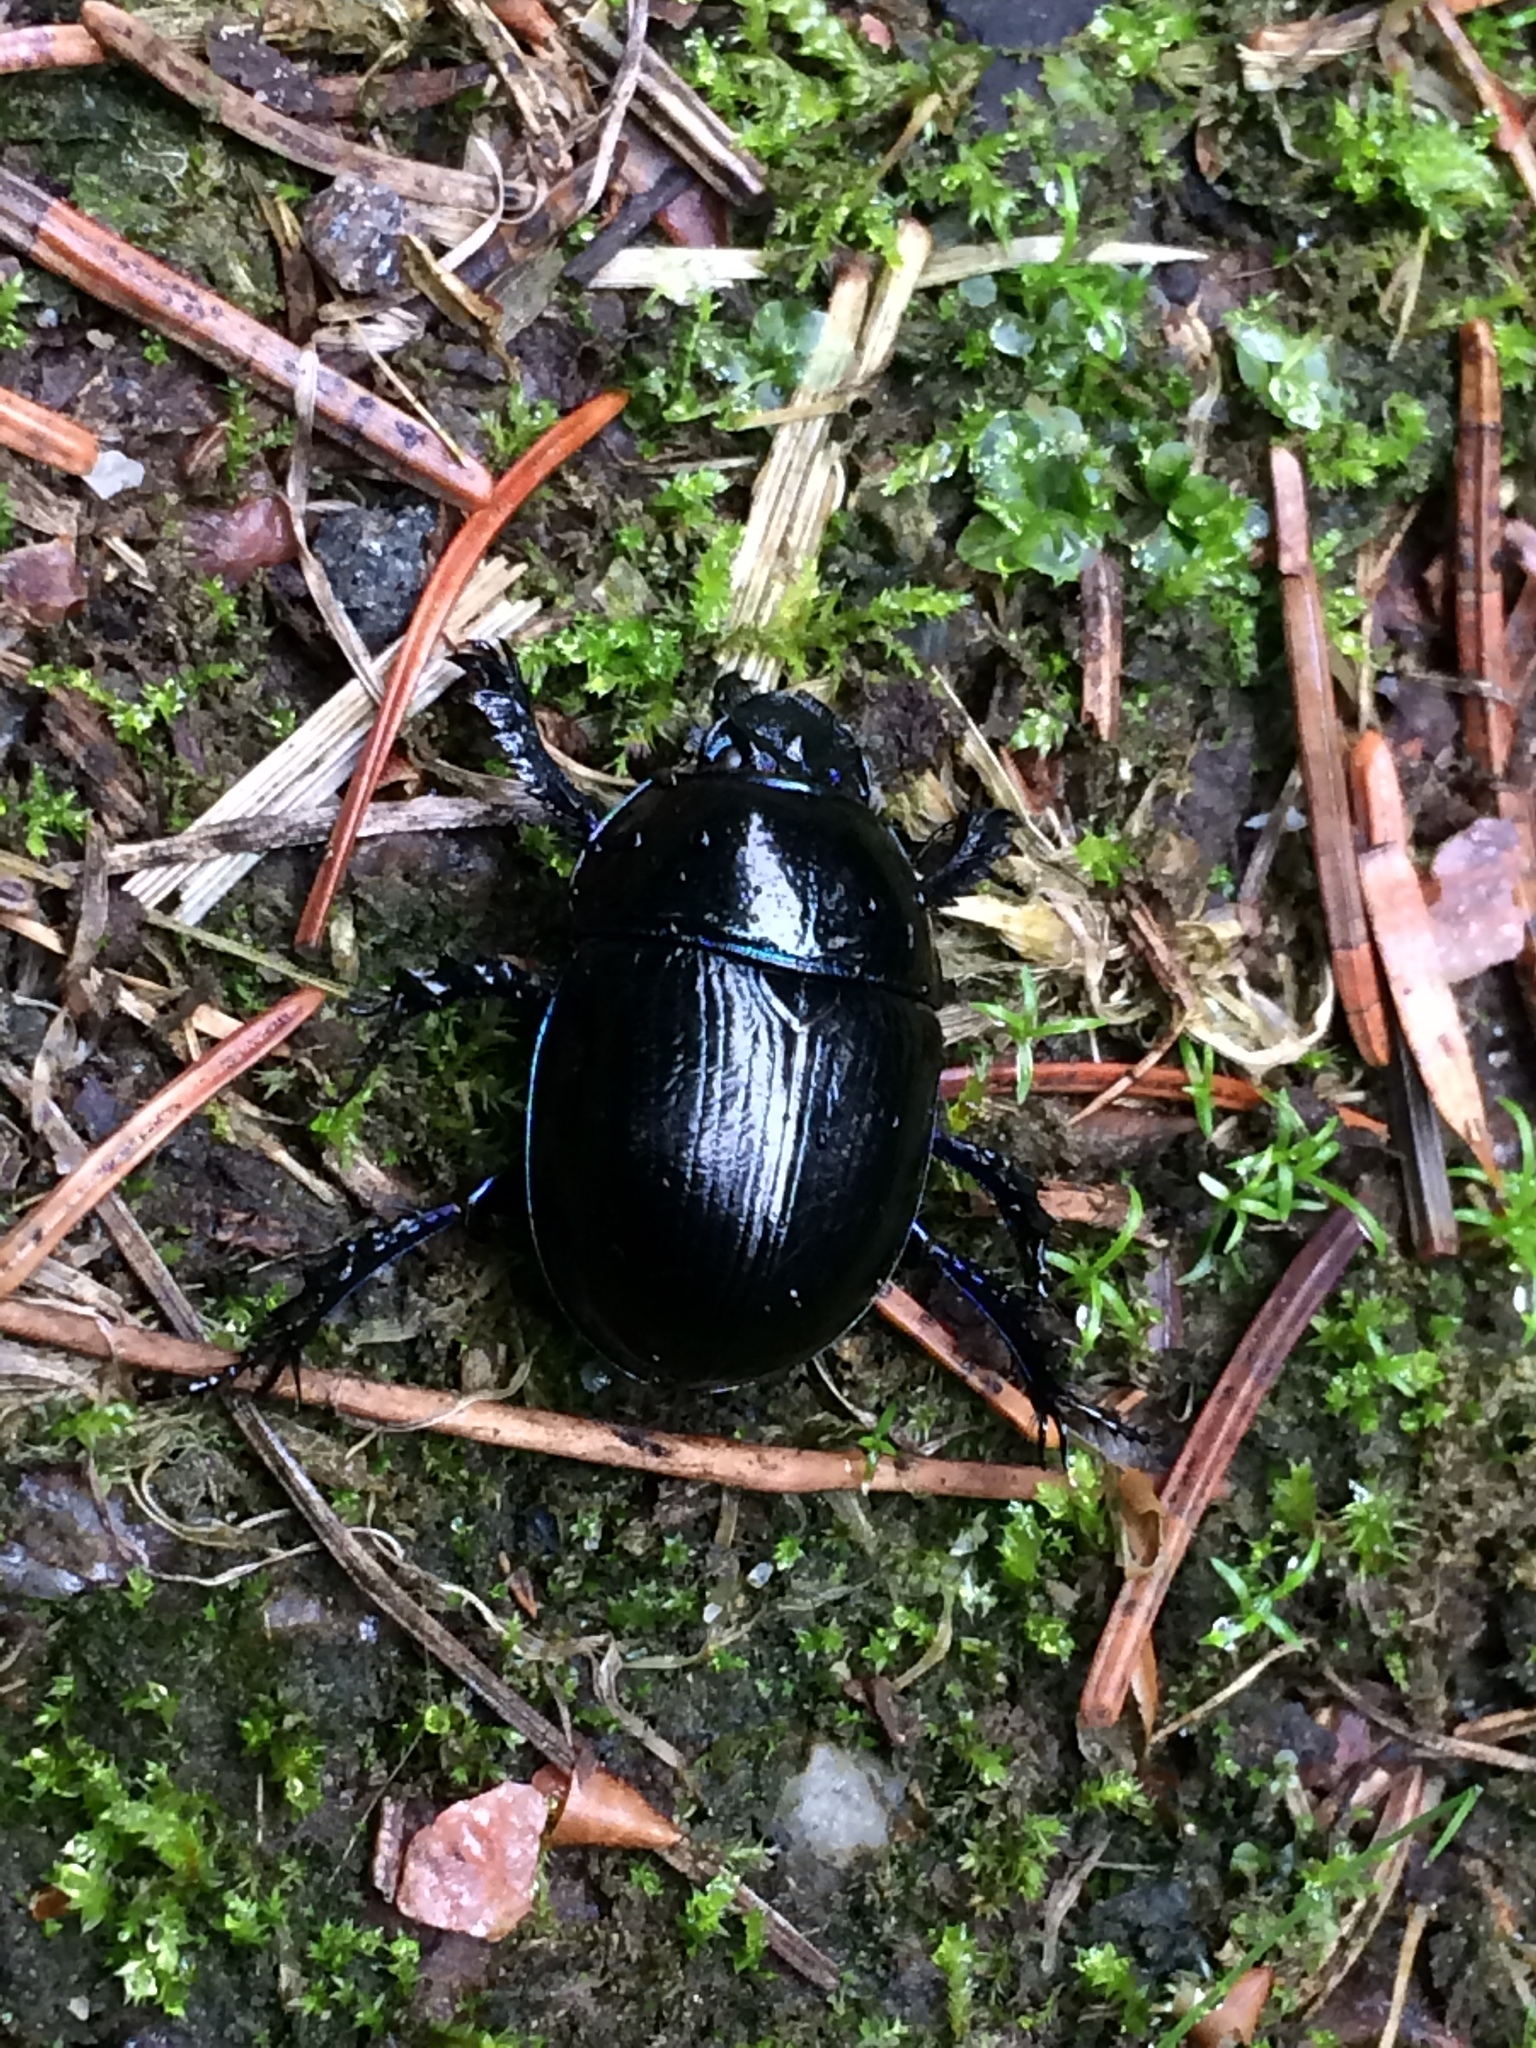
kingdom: Animalia
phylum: Arthropoda
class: Insecta
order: Coleoptera
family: Geotrupidae
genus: Anoplotrupes
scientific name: Anoplotrupes stercorosus
